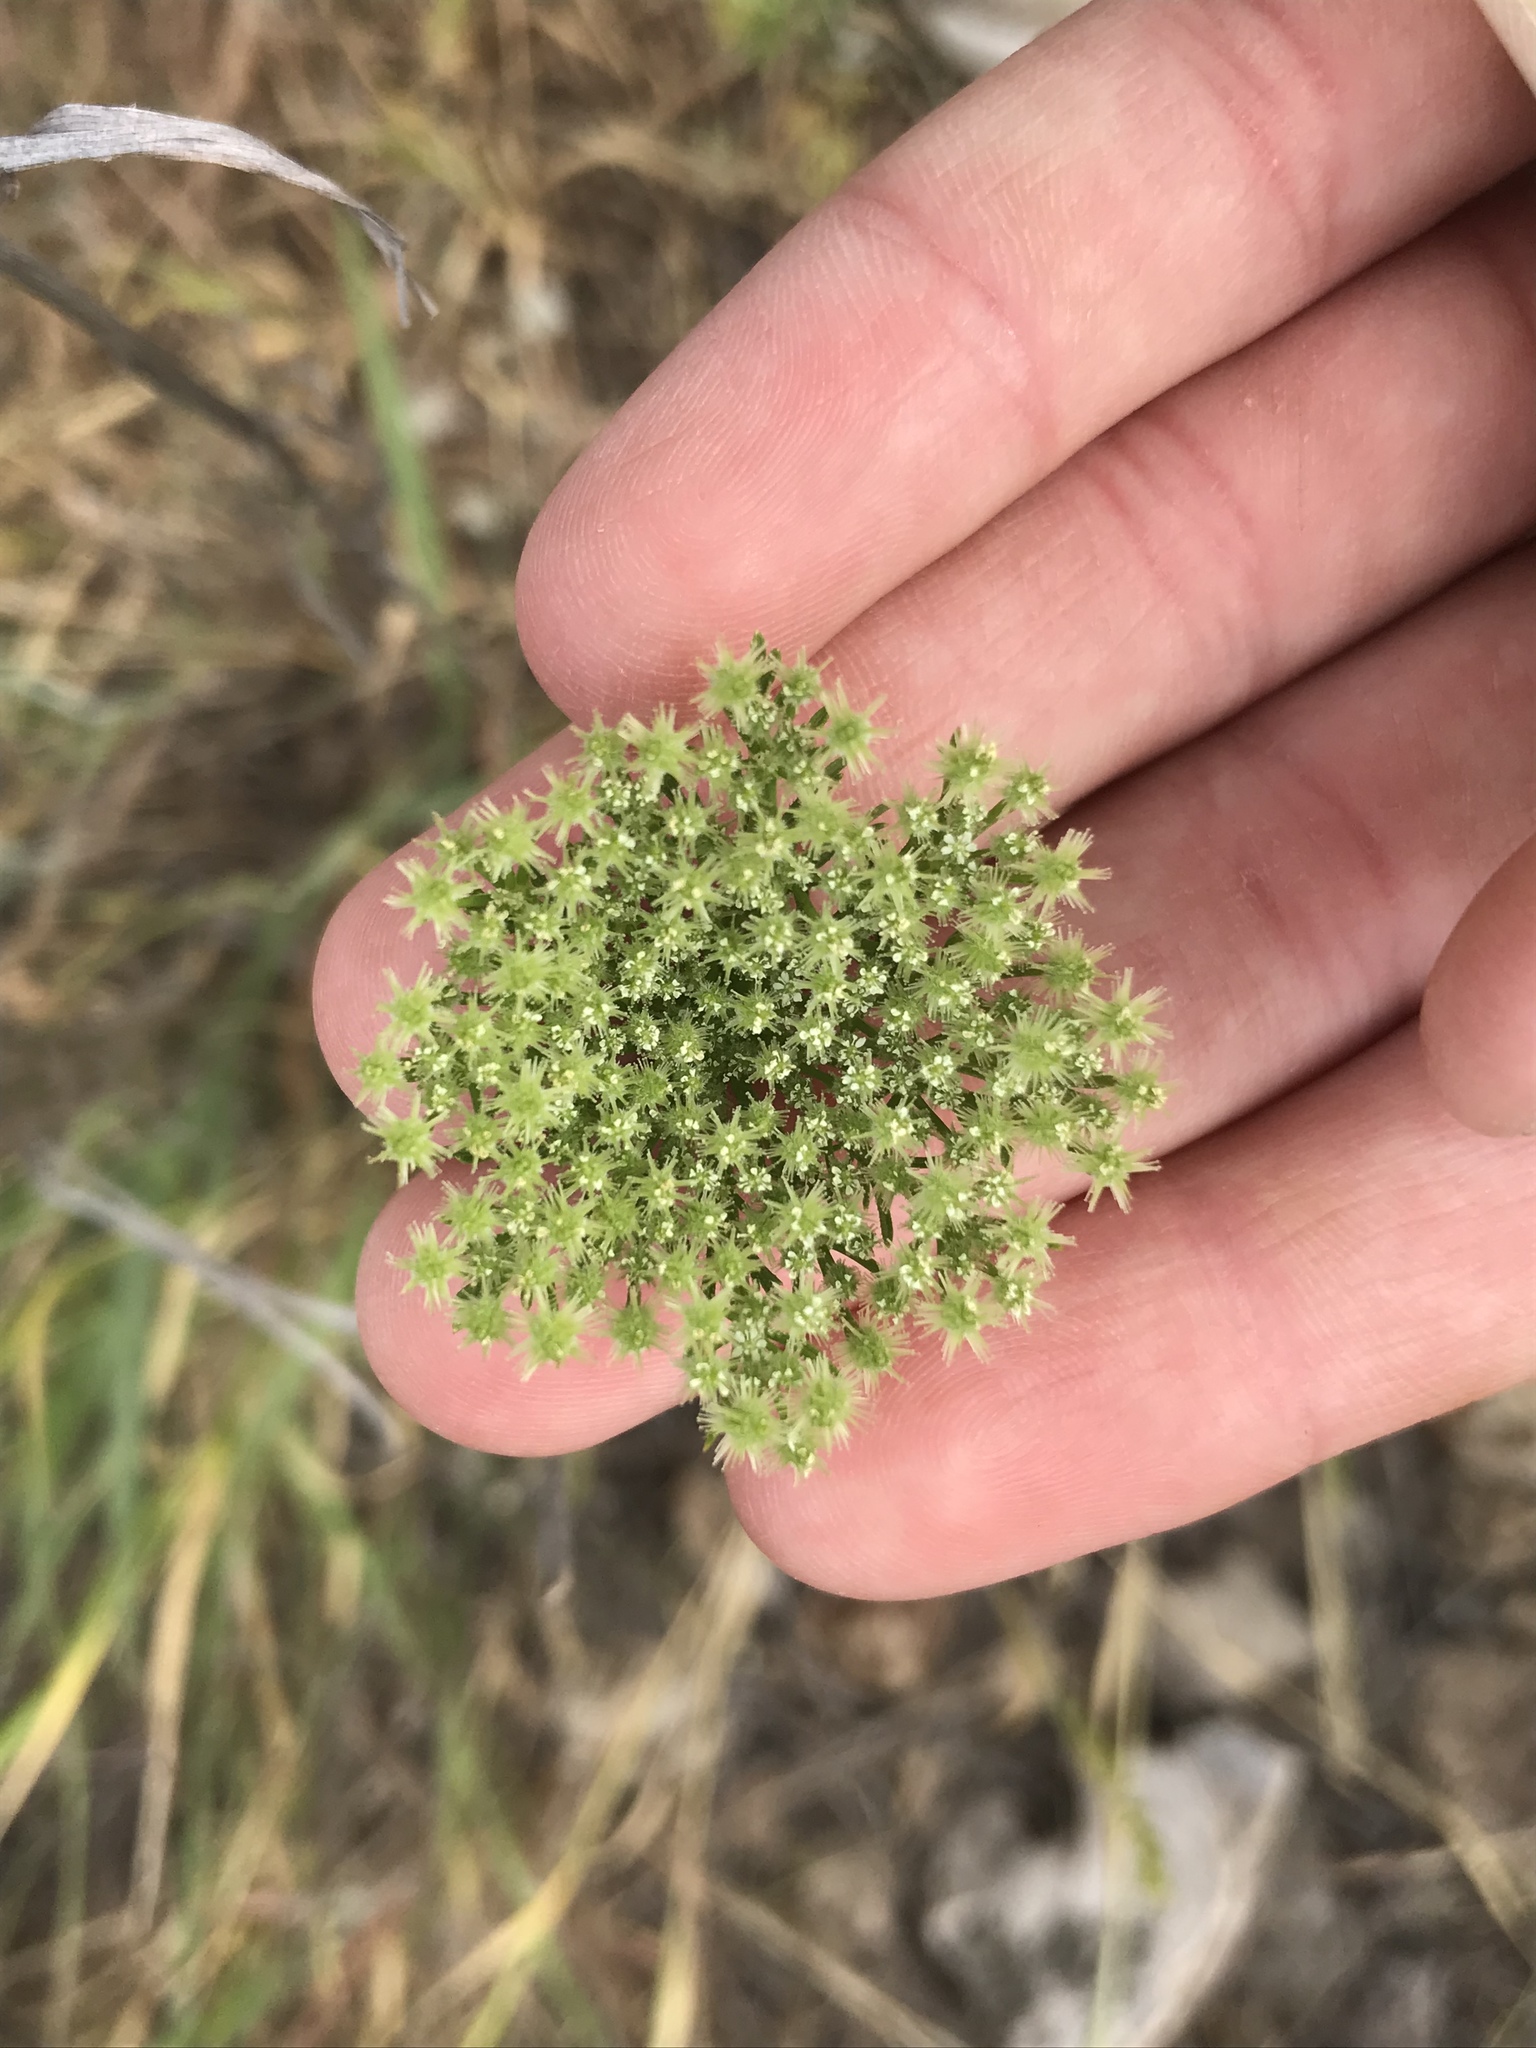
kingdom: Plantae
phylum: Tracheophyta
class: Magnoliopsida
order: Apiales
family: Apiaceae
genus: Daucus
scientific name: Daucus pusillus
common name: Southwest wild carrot
